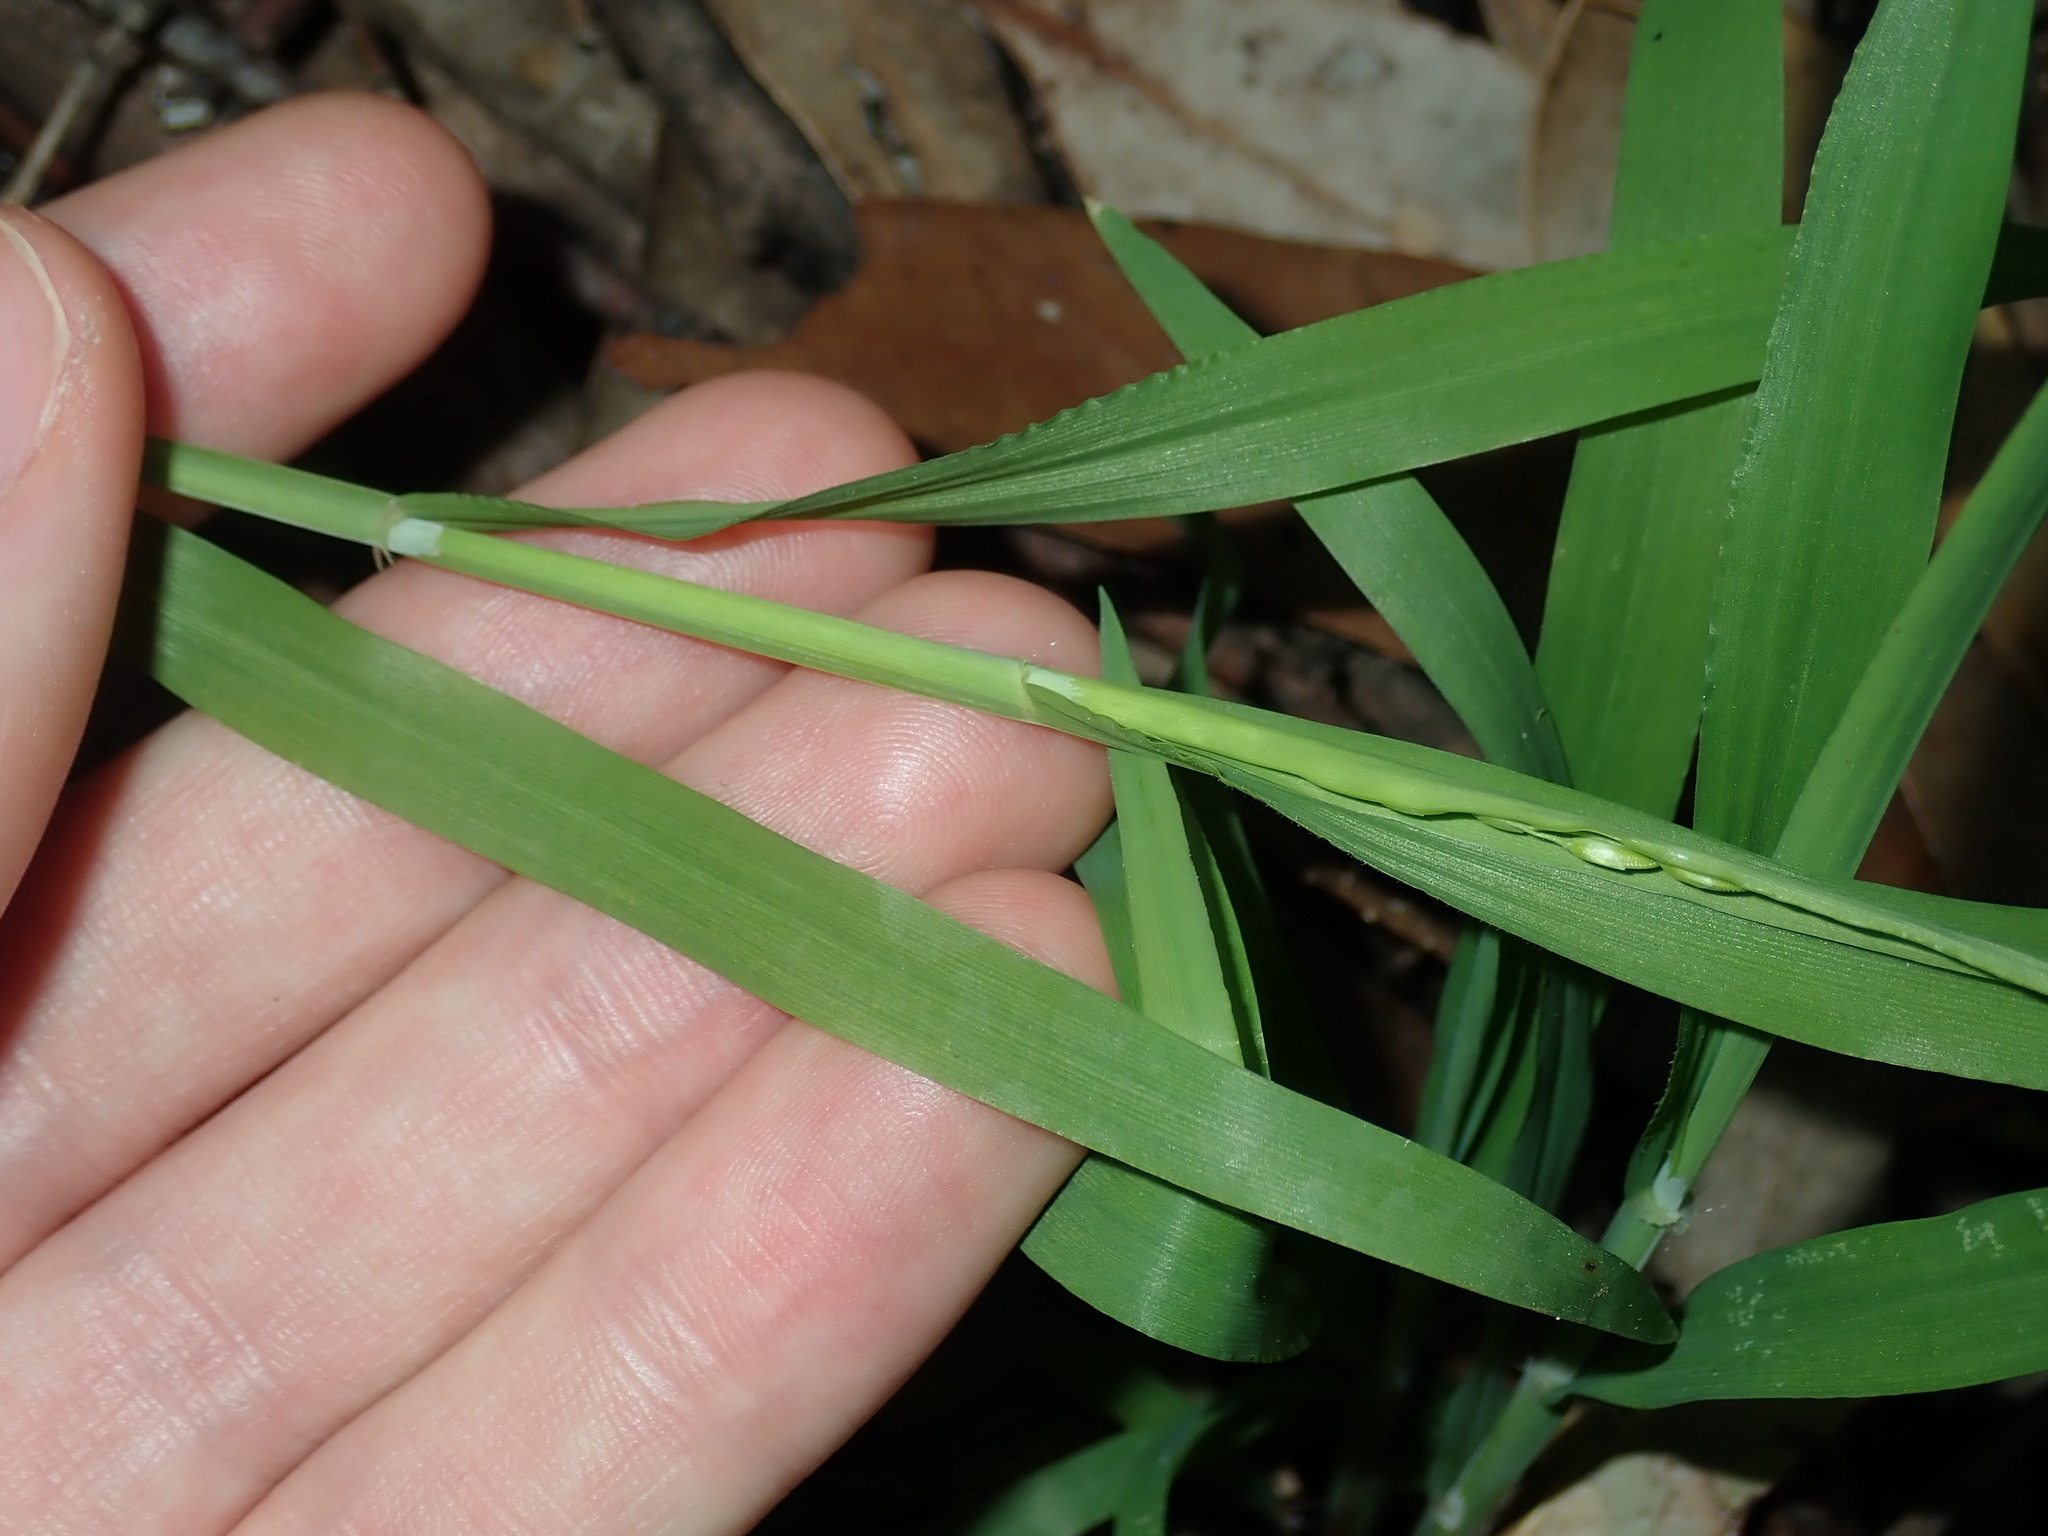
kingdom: Plantae
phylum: Tracheophyta
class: Liliopsida
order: Poales
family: Poaceae
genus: Ehrharta
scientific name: Ehrharta erecta
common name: Panic veldtgrass
